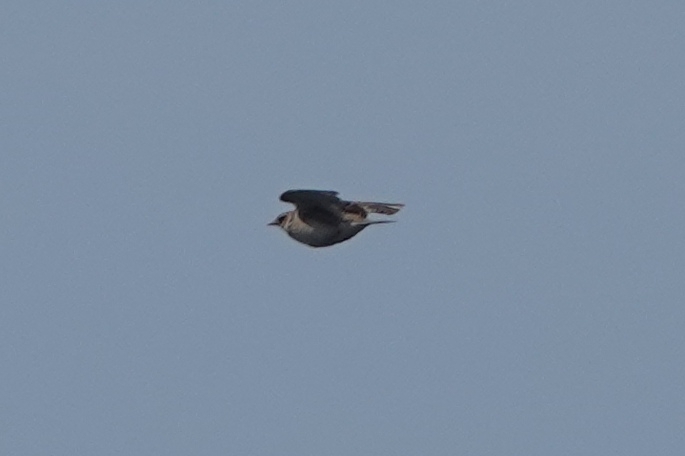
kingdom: Animalia
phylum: Chordata
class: Aves
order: Passeriformes
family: Alaudidae
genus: Alauda
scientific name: Alauda arvensis
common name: Eurasian skylark
